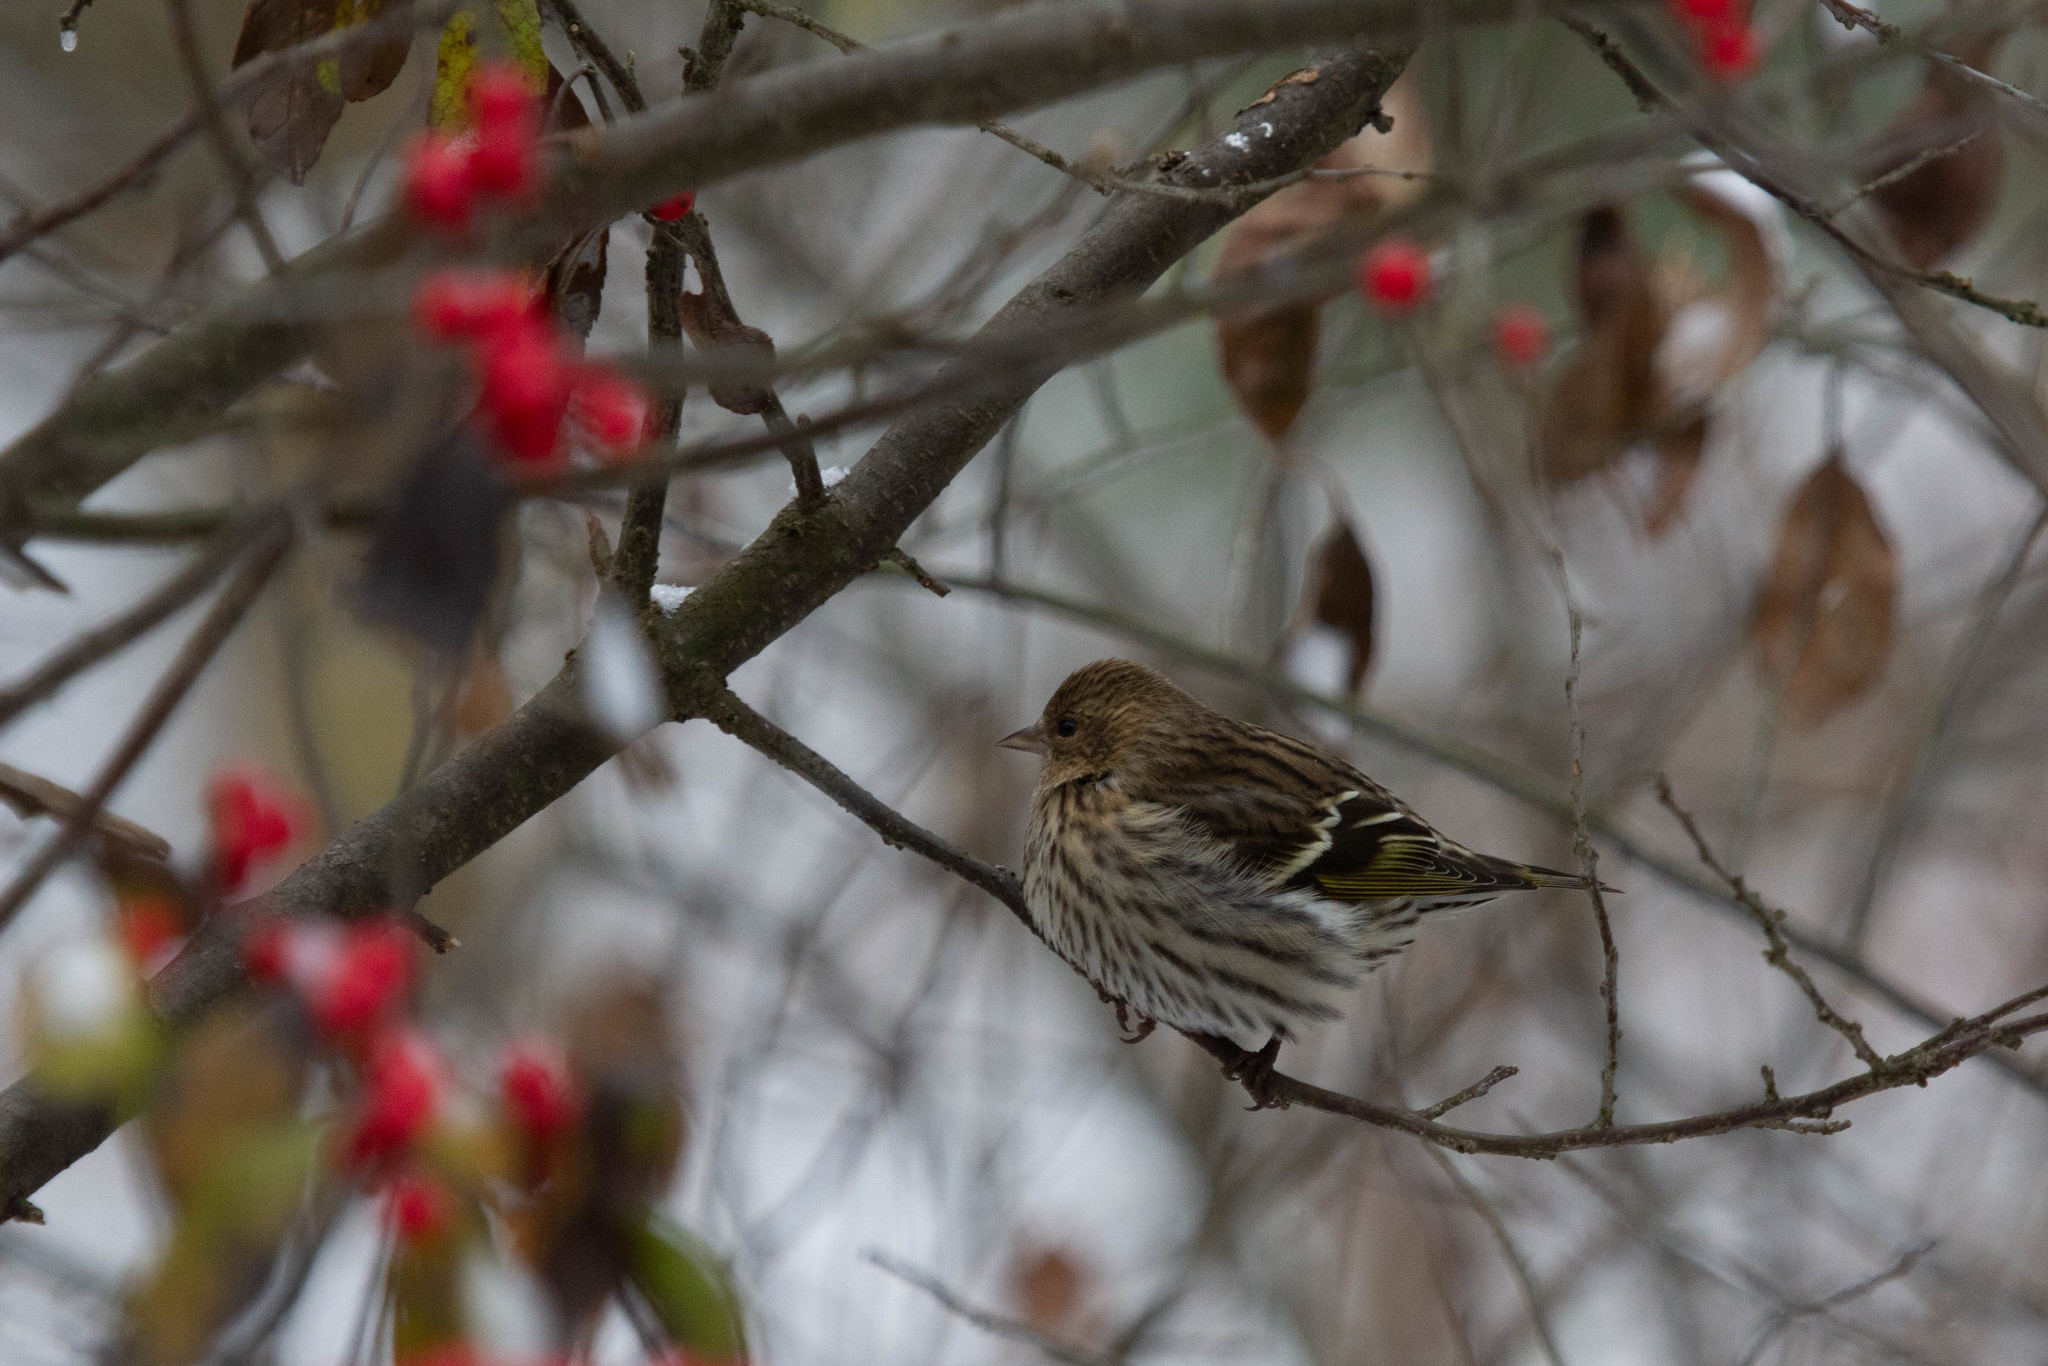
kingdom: Animalia
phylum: Chordata
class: Aves
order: Passeriformes
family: Fringillidae
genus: Spinus
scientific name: Spinus pinus
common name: Pine siskin
